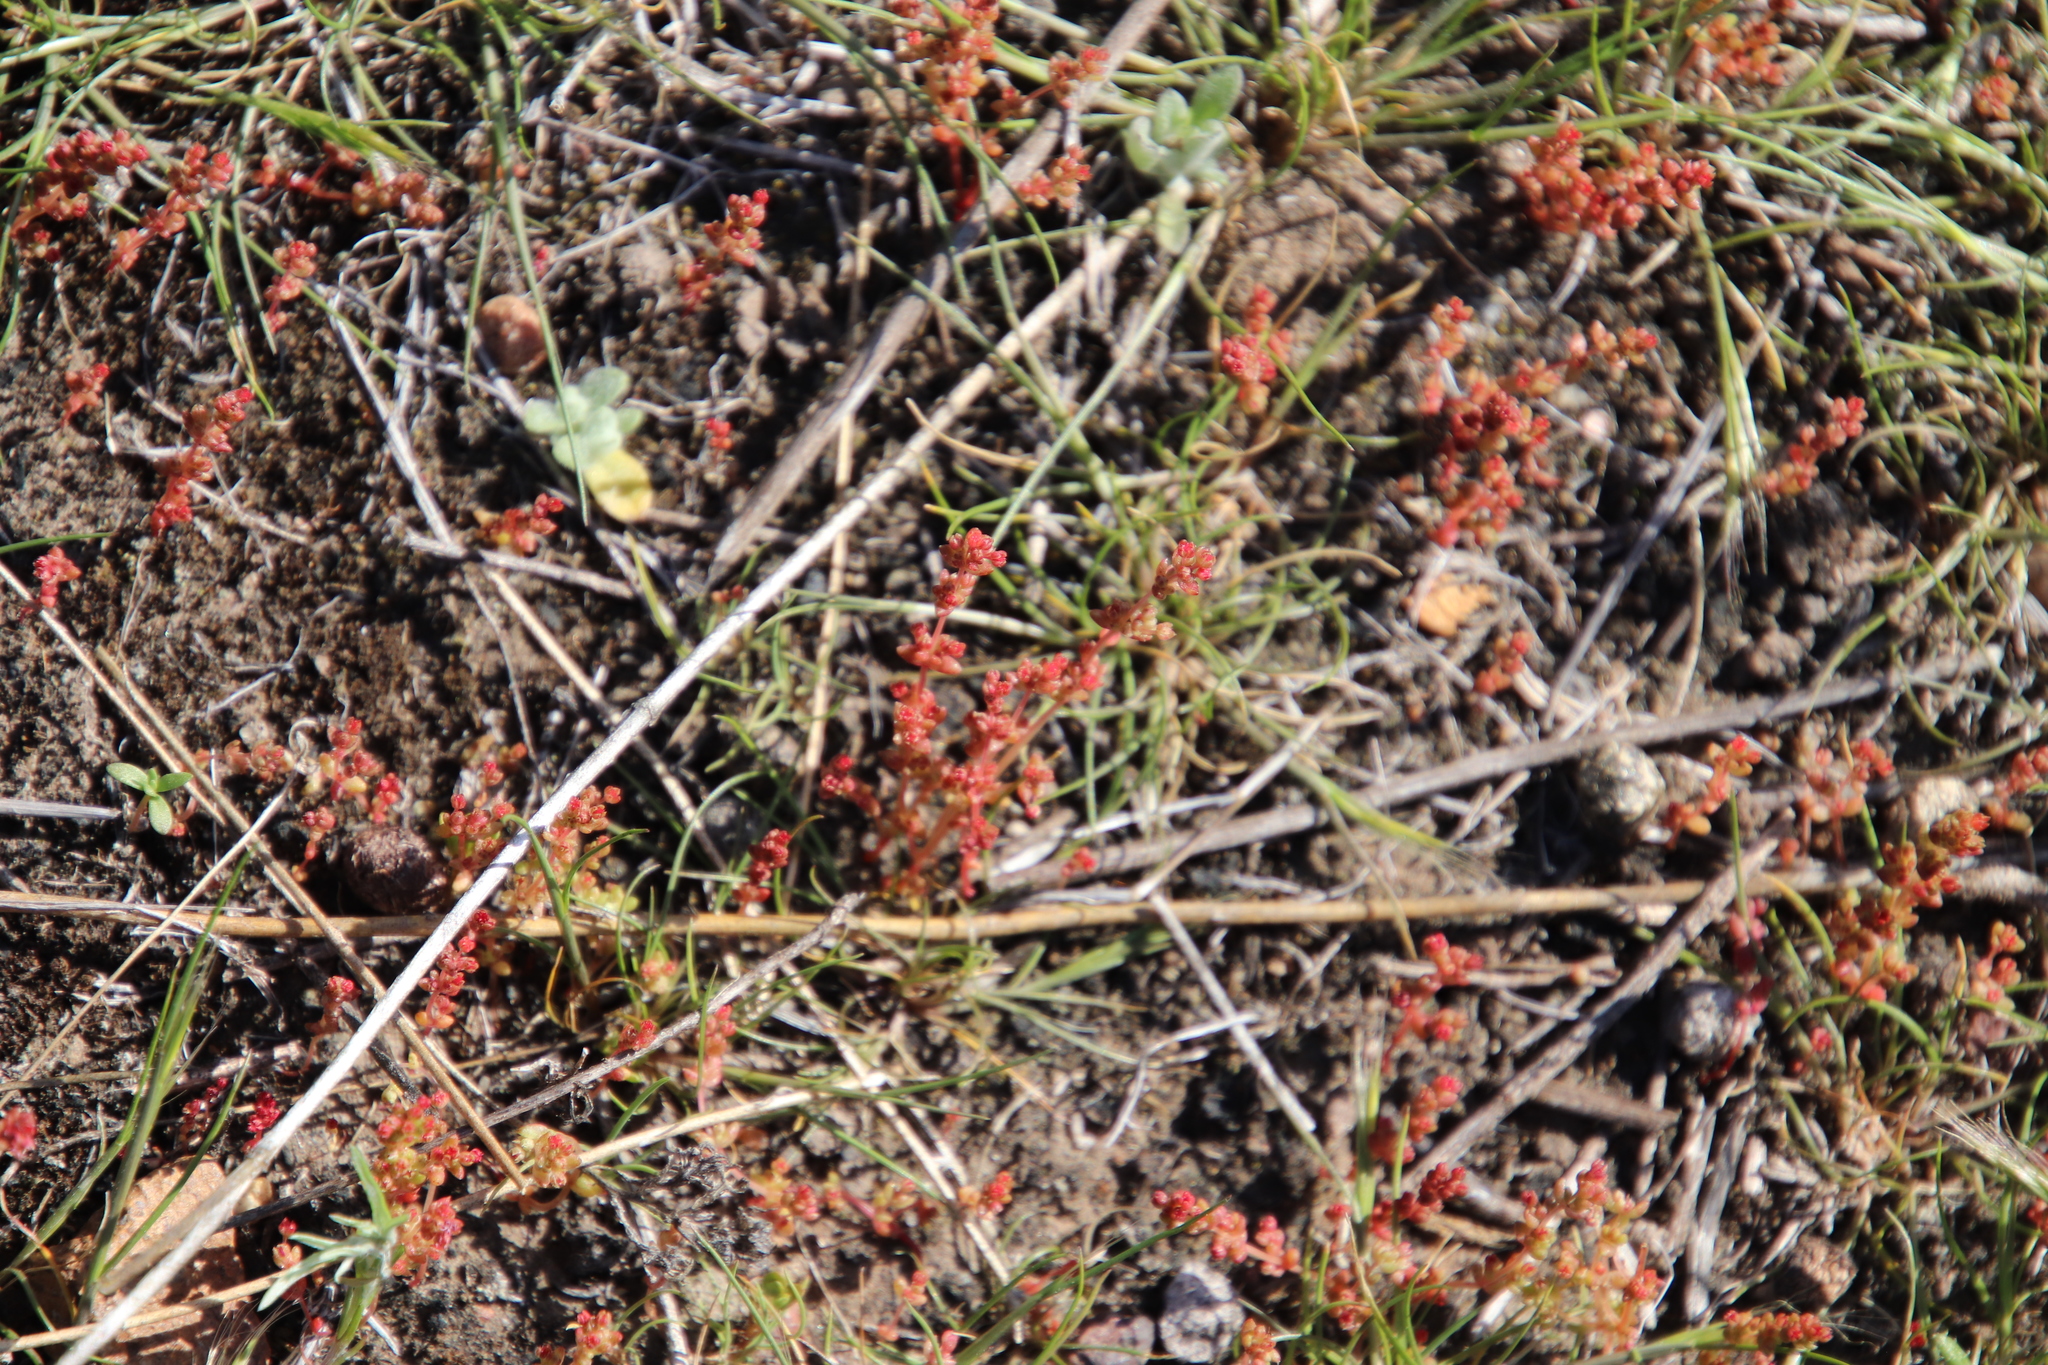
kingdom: Plantae
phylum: Tracheophyta
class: Magnoliopsida
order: Saxifragales
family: Crassulaceae
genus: Crassula
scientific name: Crassula connata
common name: Erect pygmyweed
